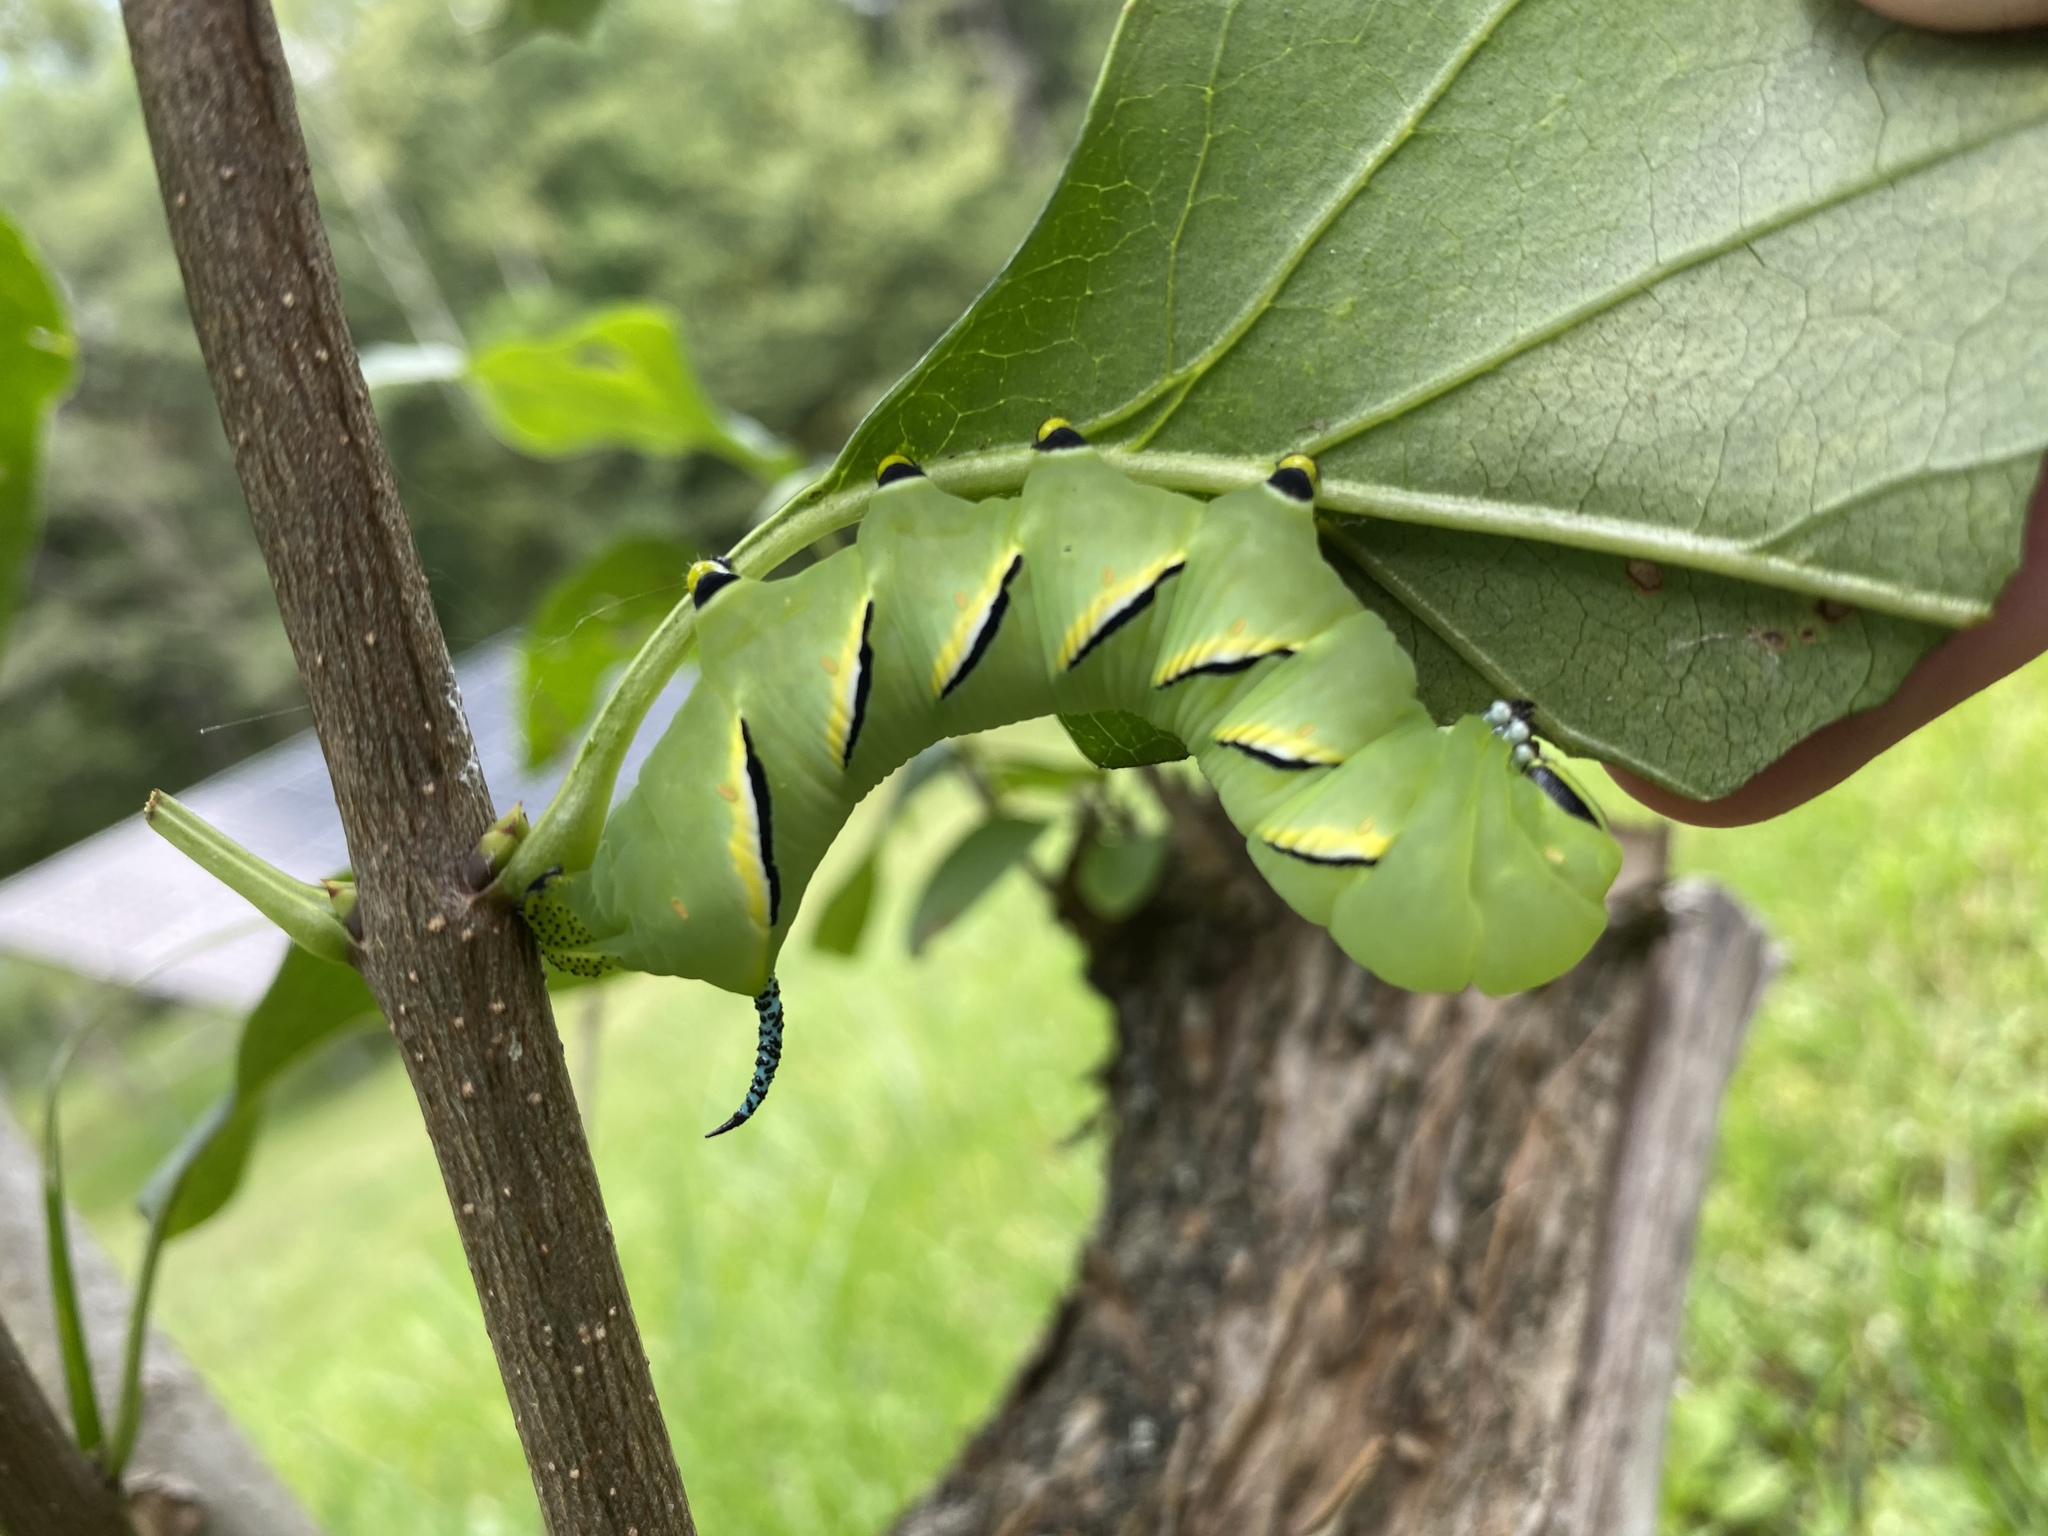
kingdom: Animalia
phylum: Arthropoda
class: Insecta
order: Lepidoptera
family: Sphingidae
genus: Sphinx
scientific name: Sphinx kalmiae
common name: Laurel sphinx
